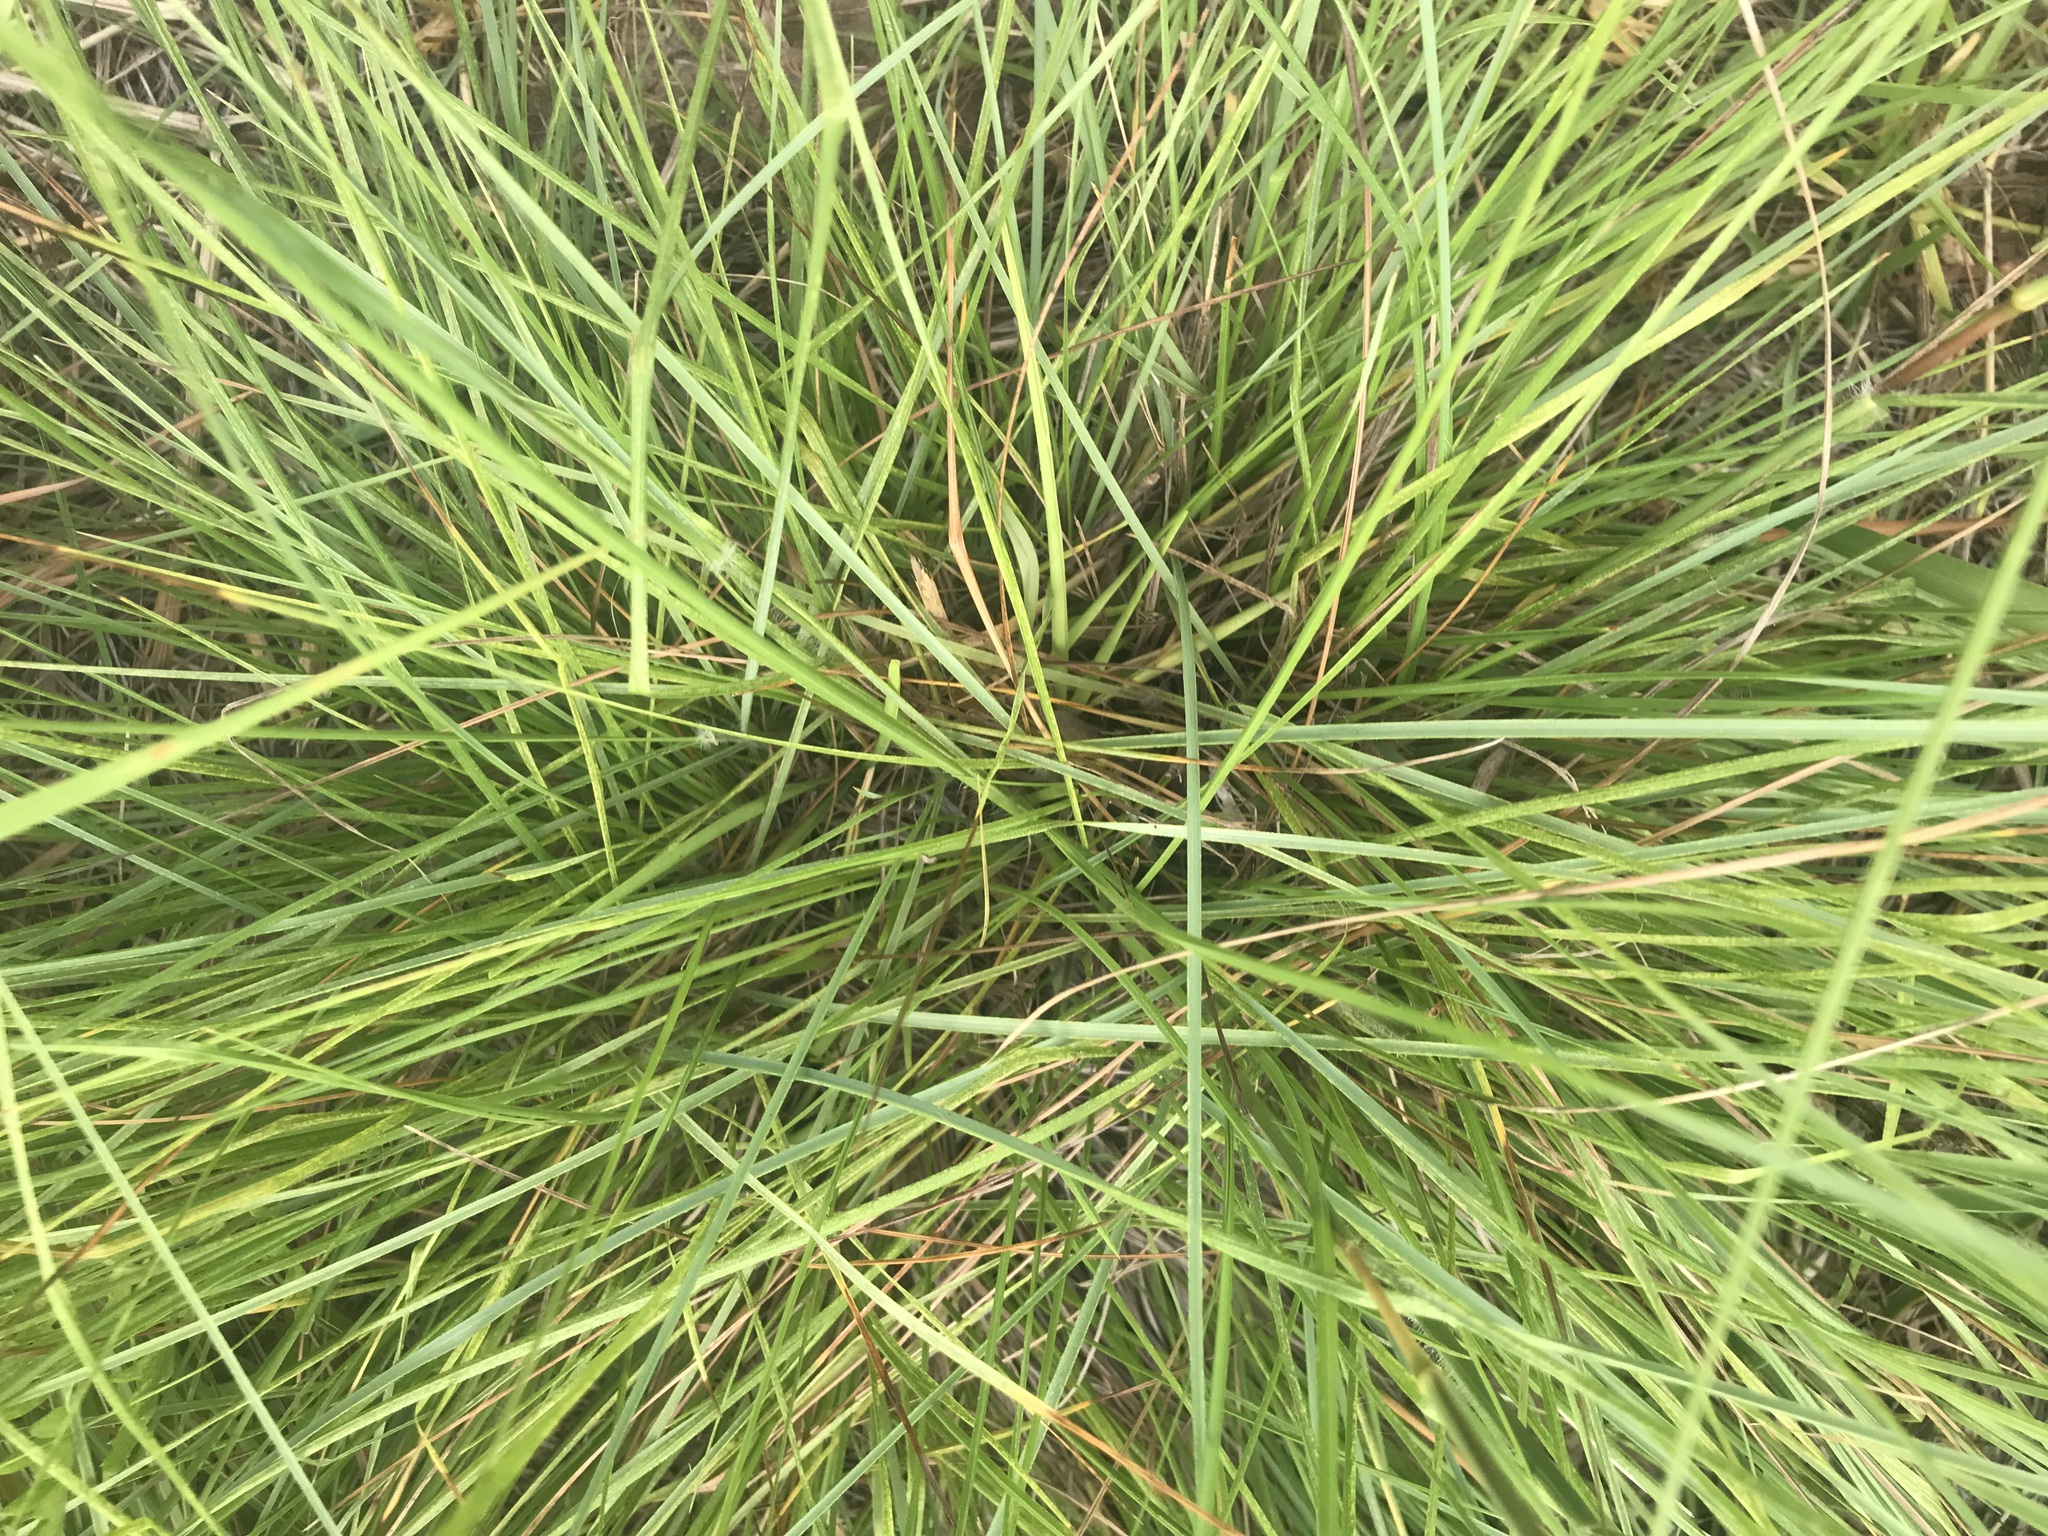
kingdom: Plantae
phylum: Tracheophyta
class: Liliopsida
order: Poales
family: Poaceae
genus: Elionurus
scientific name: Elionurus tripsacoides
